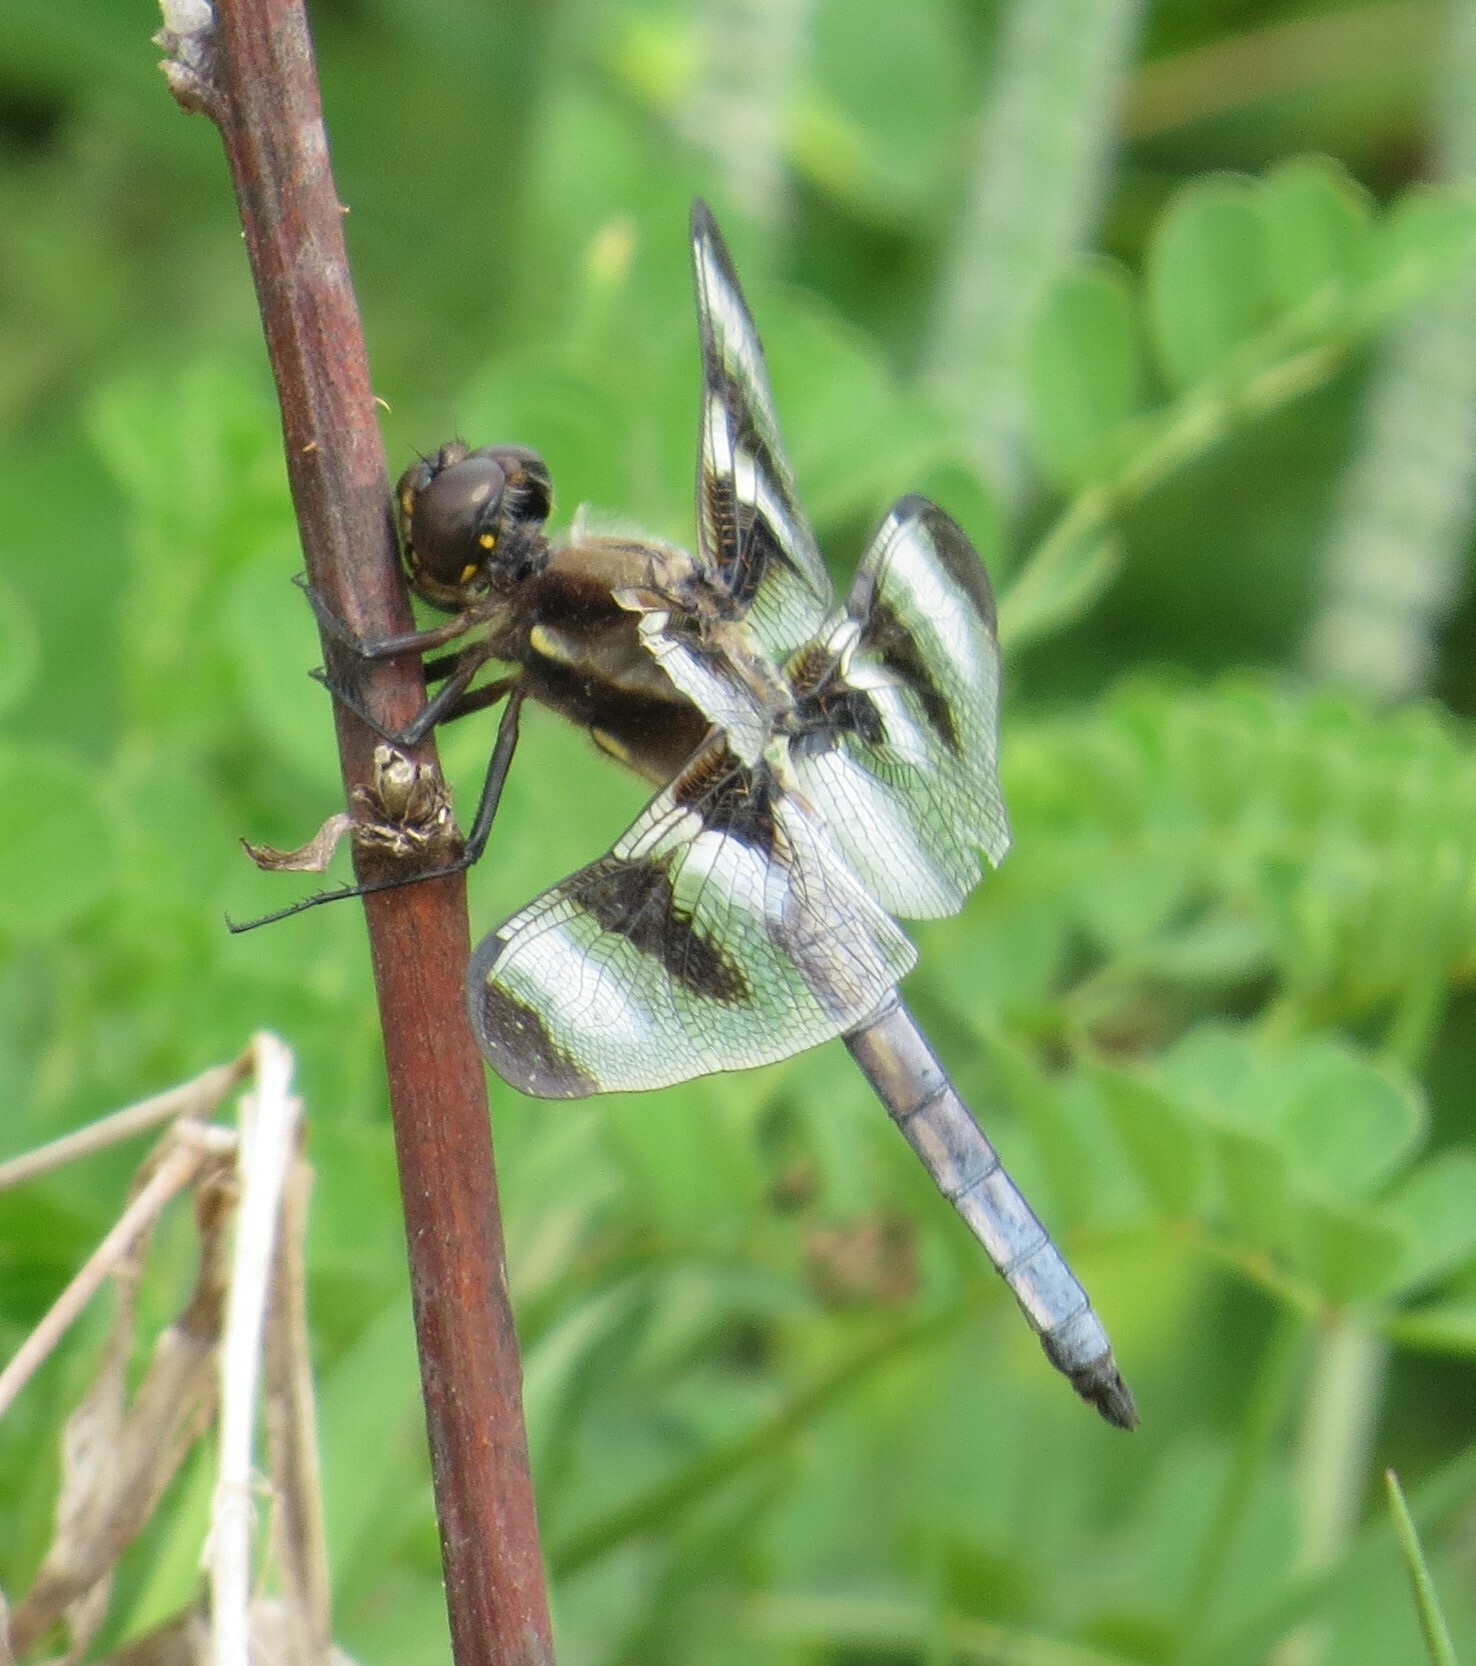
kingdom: Animalia
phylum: Arthropoda
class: Insecta
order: Odonata
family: Libellulidae
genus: Libellula
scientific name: Libellula pulchella
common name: Twelve-spotted skimmer
